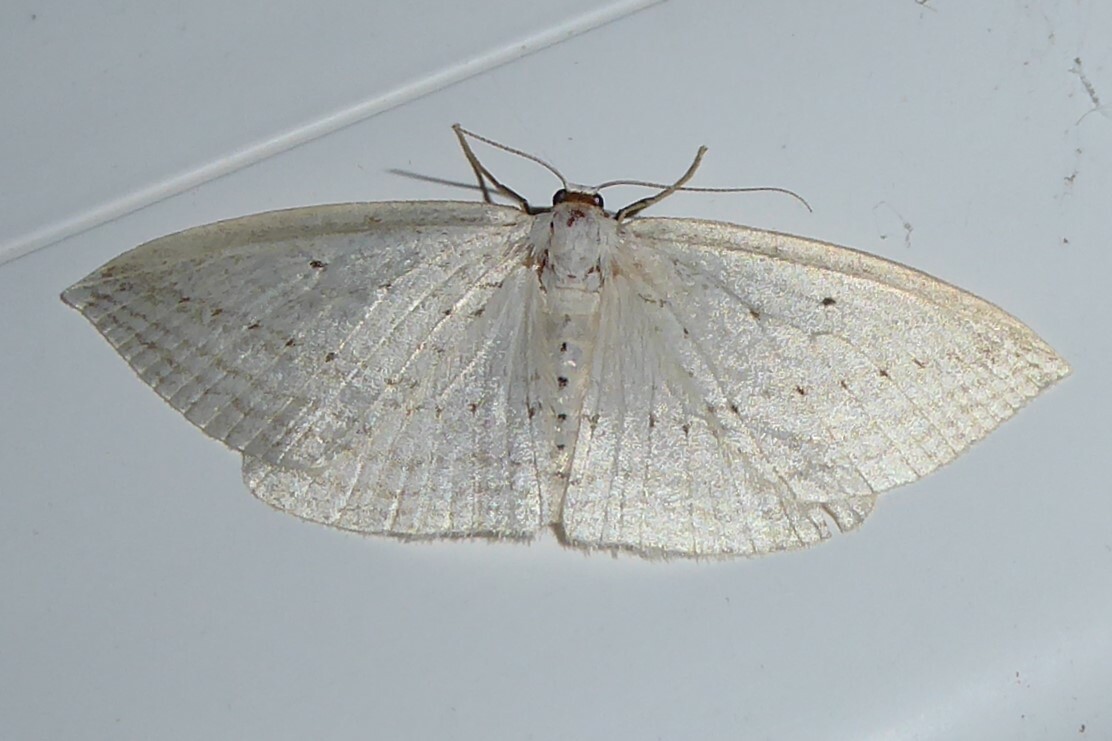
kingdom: Animalia
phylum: Arthropoda
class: Insecta
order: Lepidoptera
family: Geometridae
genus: Orthoclydon
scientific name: Orthoclydon praefectata
